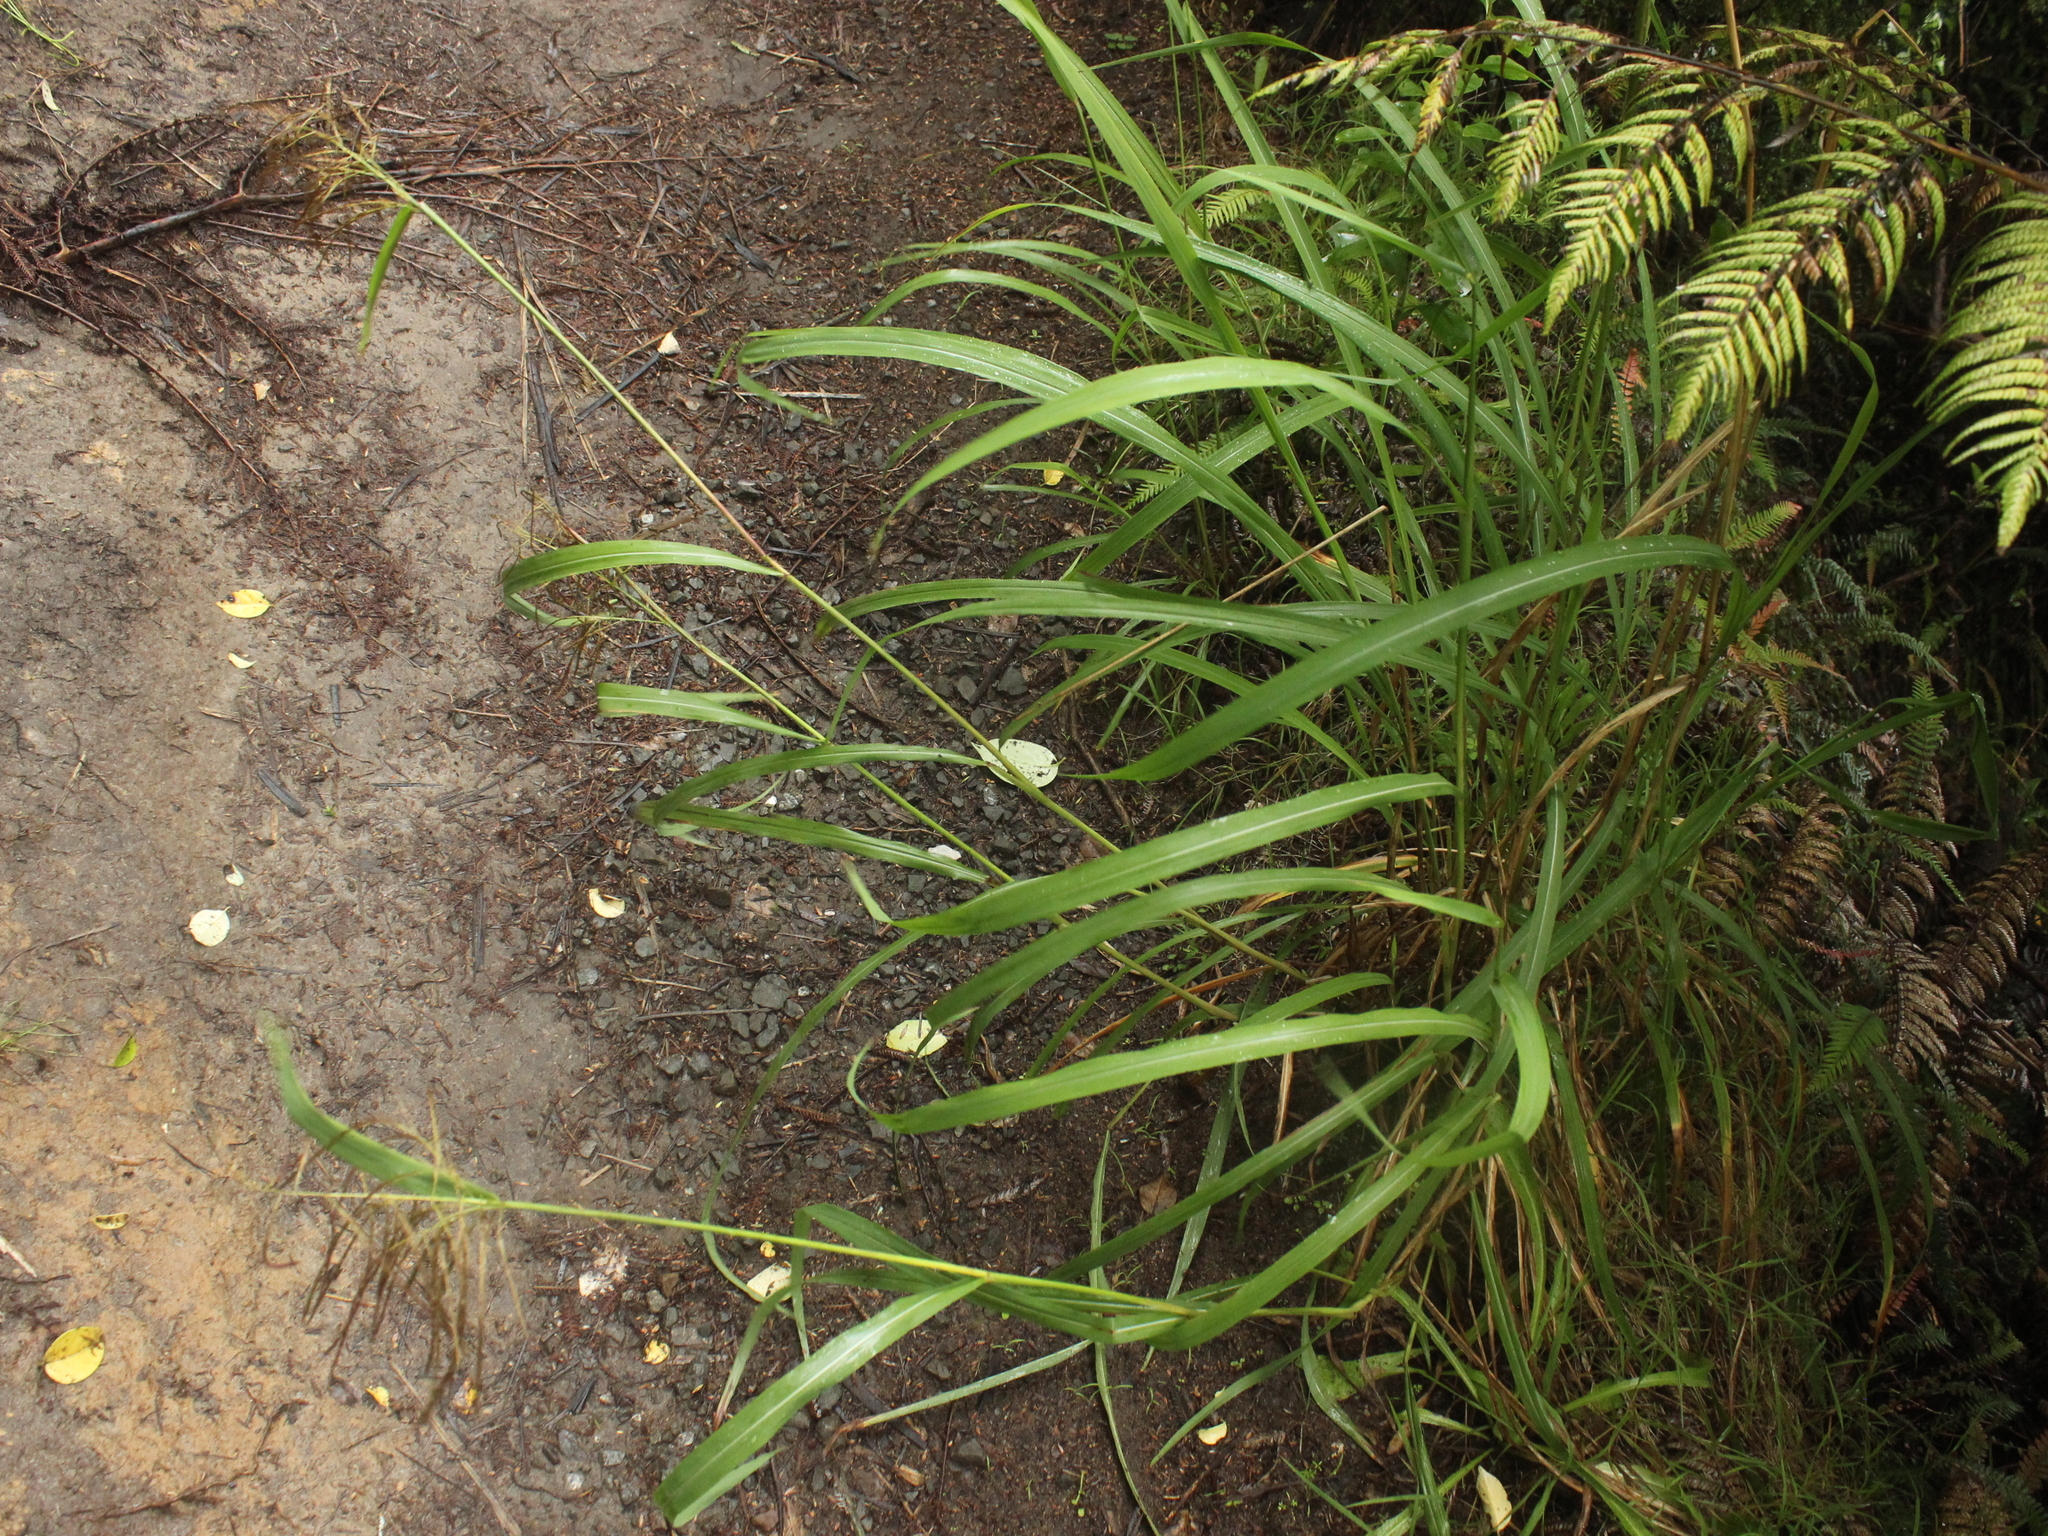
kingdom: Plantae
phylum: Tracheophyta
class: Liliopsida
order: Poales
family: Poaceae
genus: Miscanthus
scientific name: Miscanthus nepalensis
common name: Nepal silver grass
